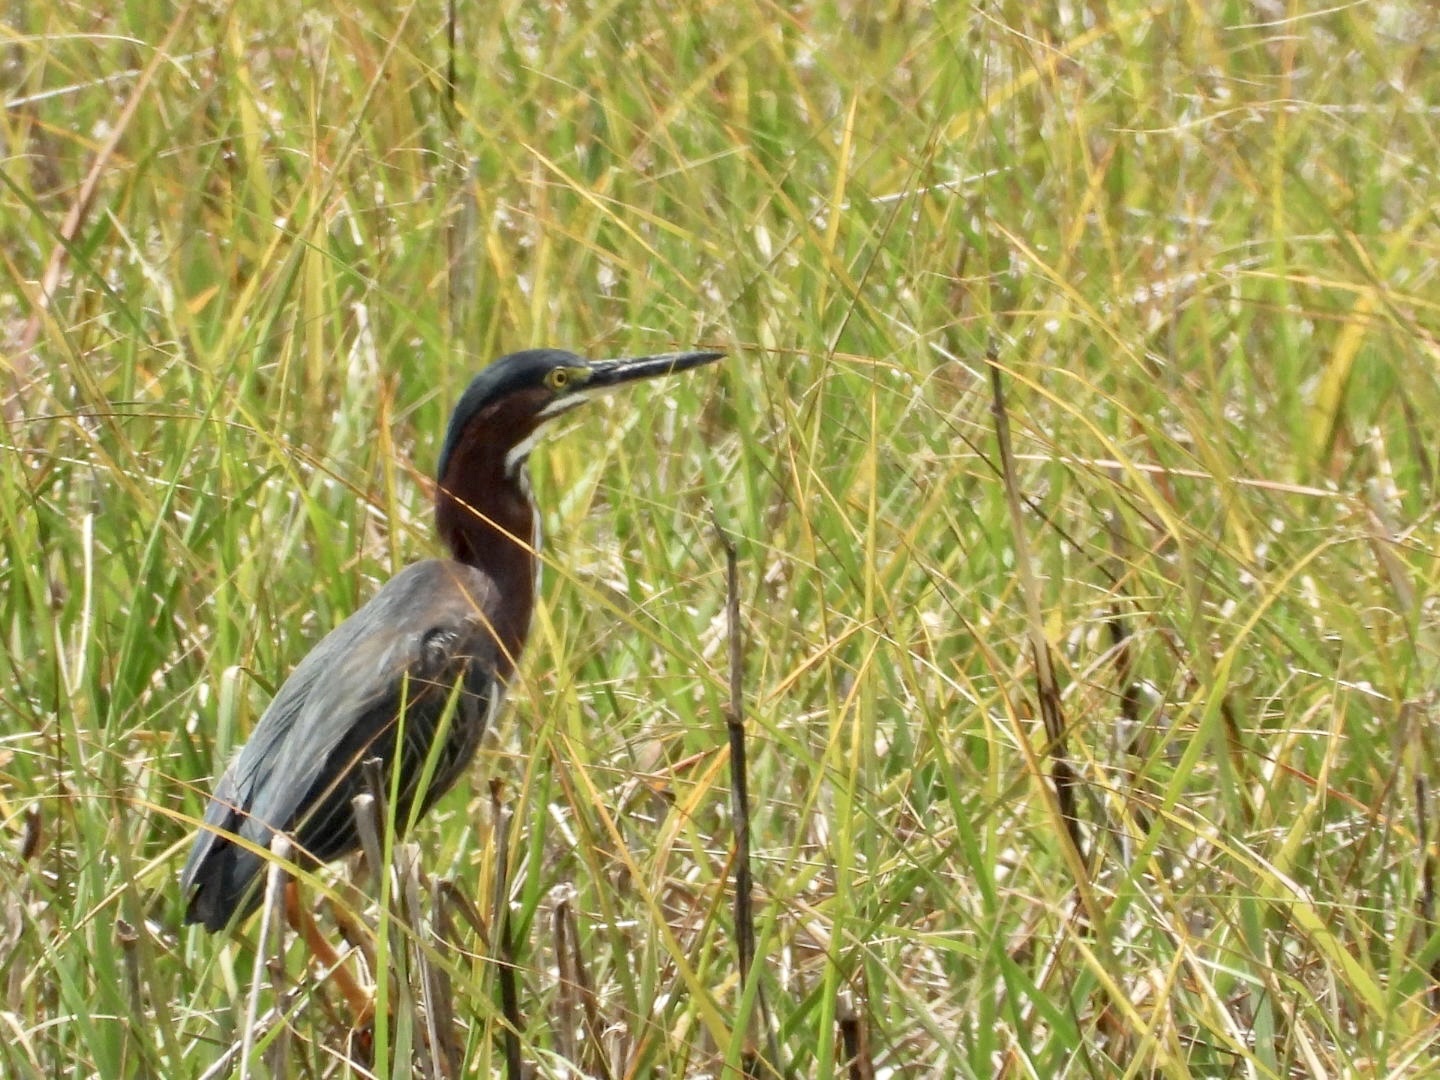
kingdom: Animalia
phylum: Chordata
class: Aves
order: Pelecaniformes
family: Ardeidae
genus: Butorides
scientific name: Butorides virescens
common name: Green heron
